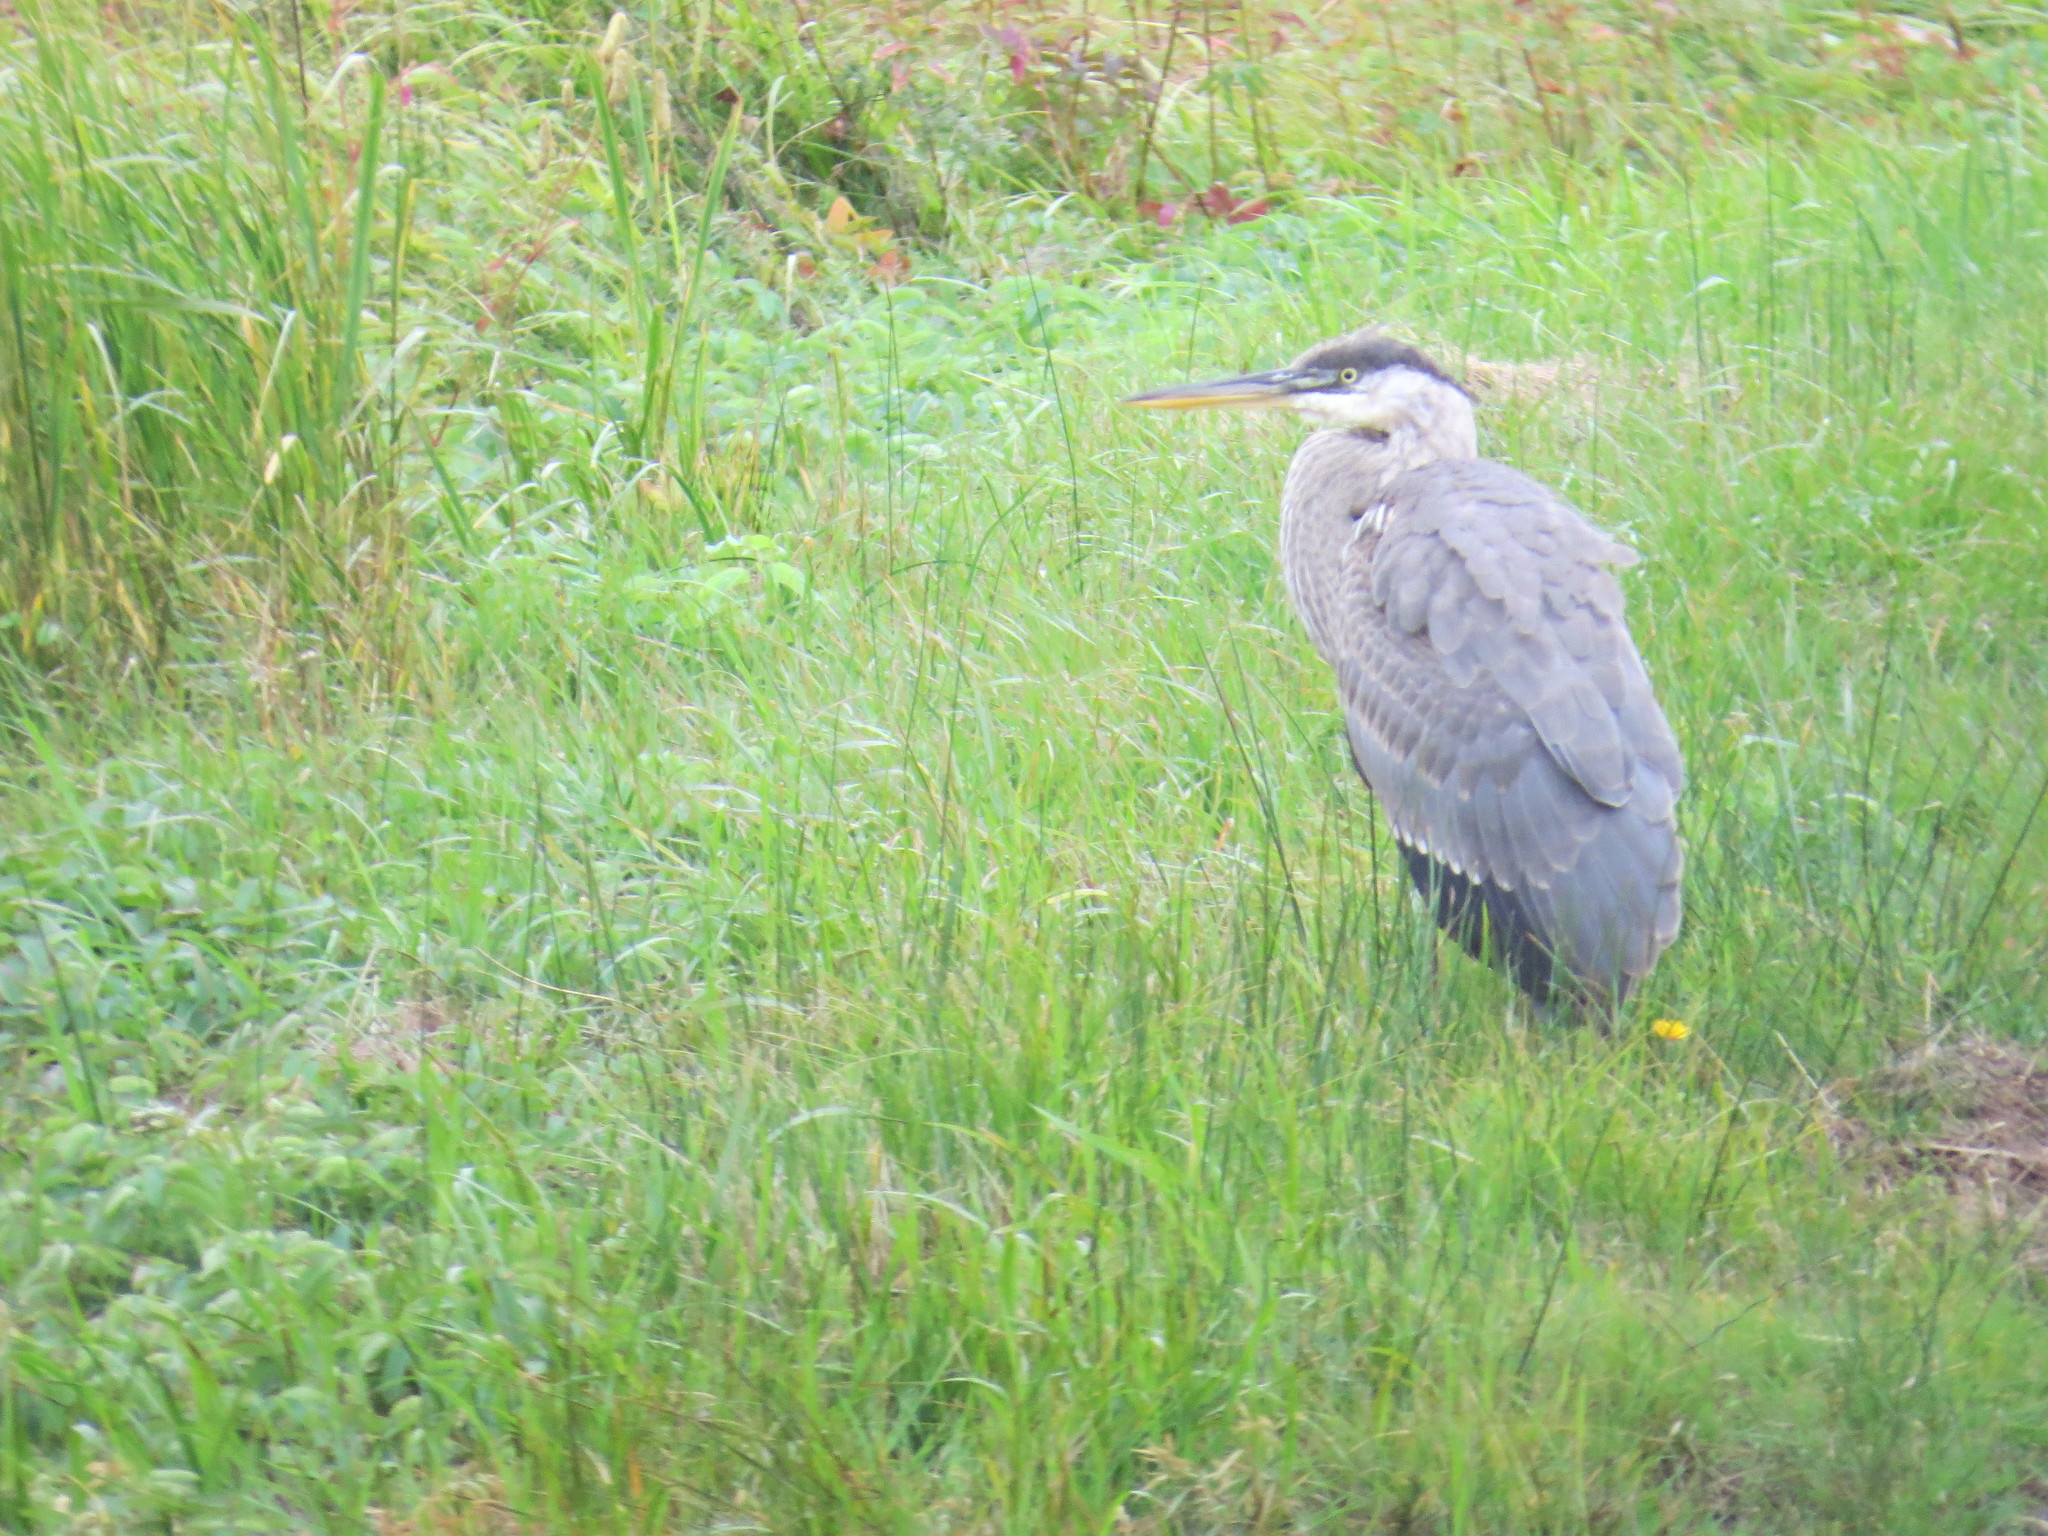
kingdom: Animalia
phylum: Chordata
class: Aves
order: Pelecaniformes
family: Ardeidae
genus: Ardea
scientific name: Ardea herodias
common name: Great blue heron
